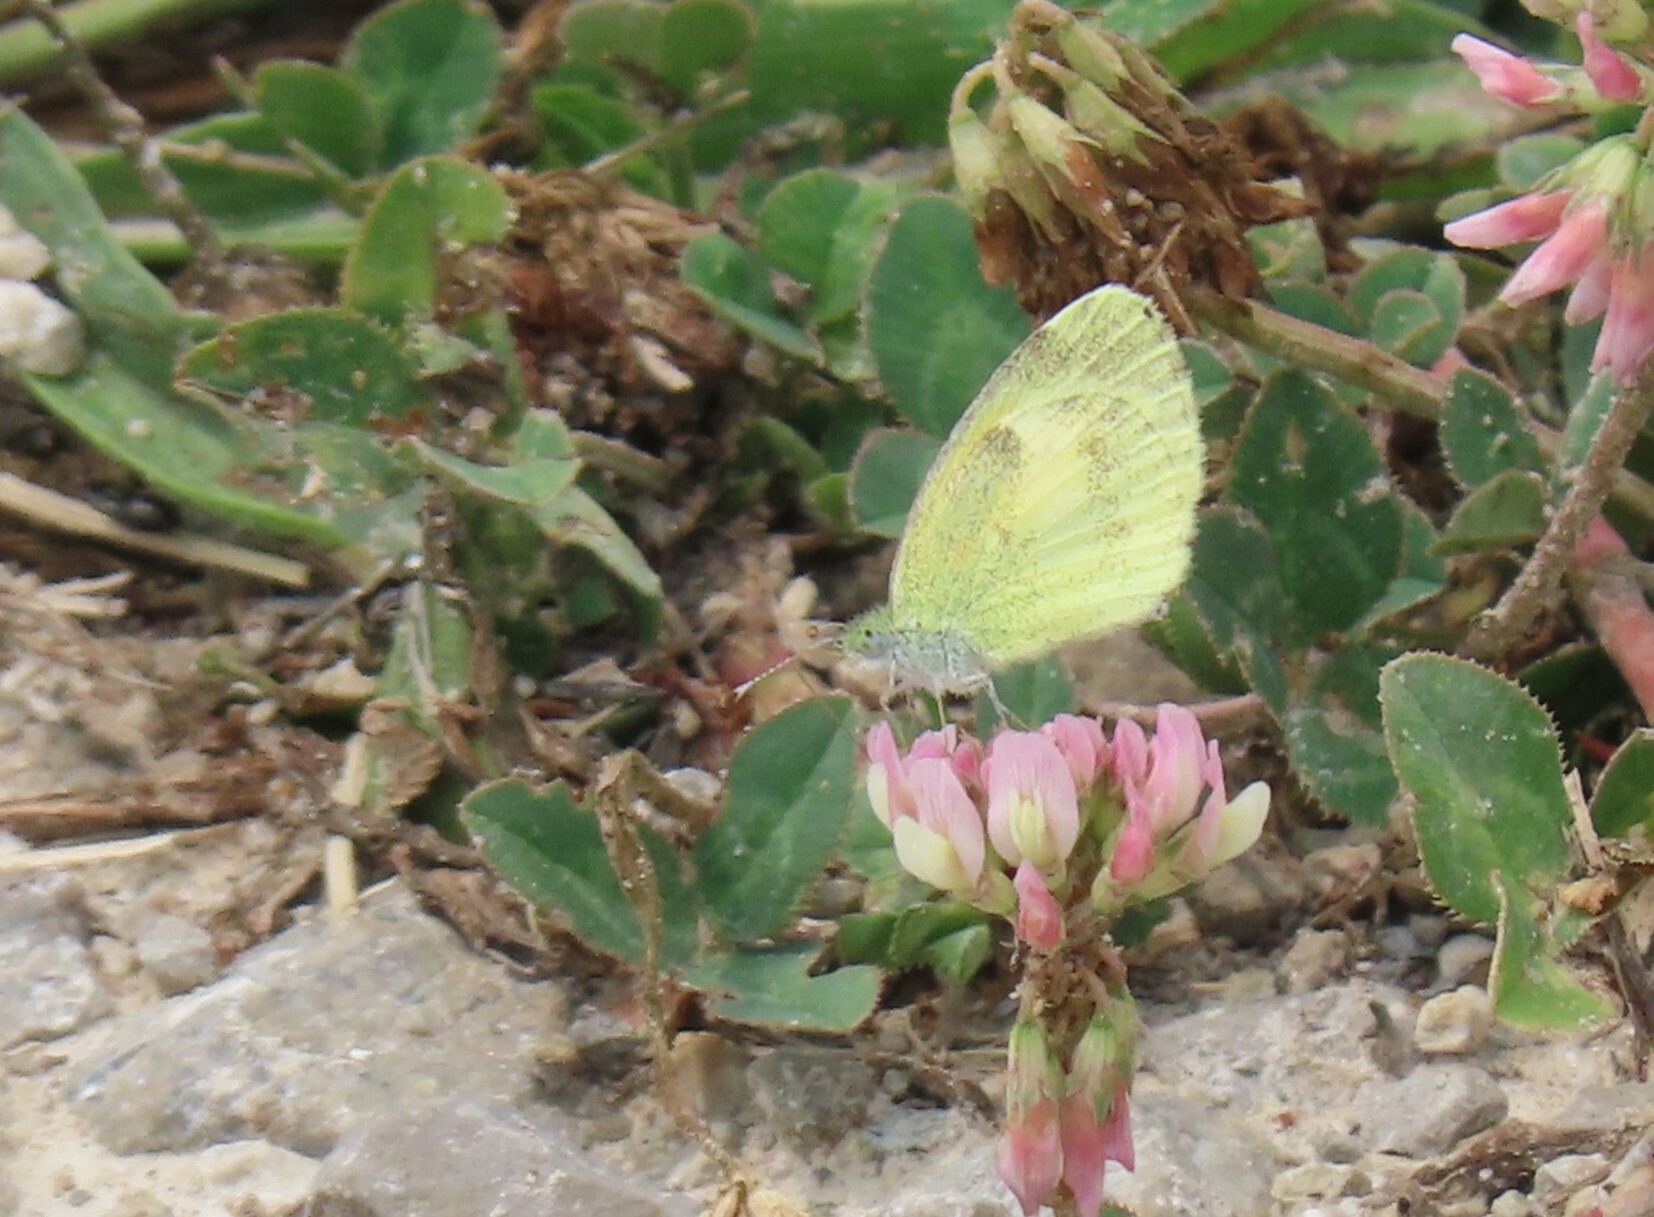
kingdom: Animalia
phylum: Arthropoda
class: Insecta
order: Lepidoptera
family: Pieridae
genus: Nathalis
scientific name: Nathalis iole
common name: Dainty sulphur
